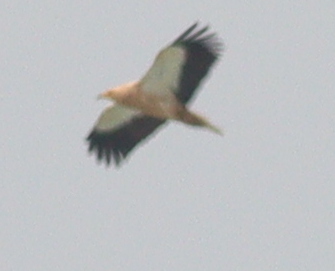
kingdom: Animalia
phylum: Chordata
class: Aves
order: Accipitriformes
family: Accipitridae
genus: Neophron
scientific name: Neophron percnopterus
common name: Egyptian vulture
